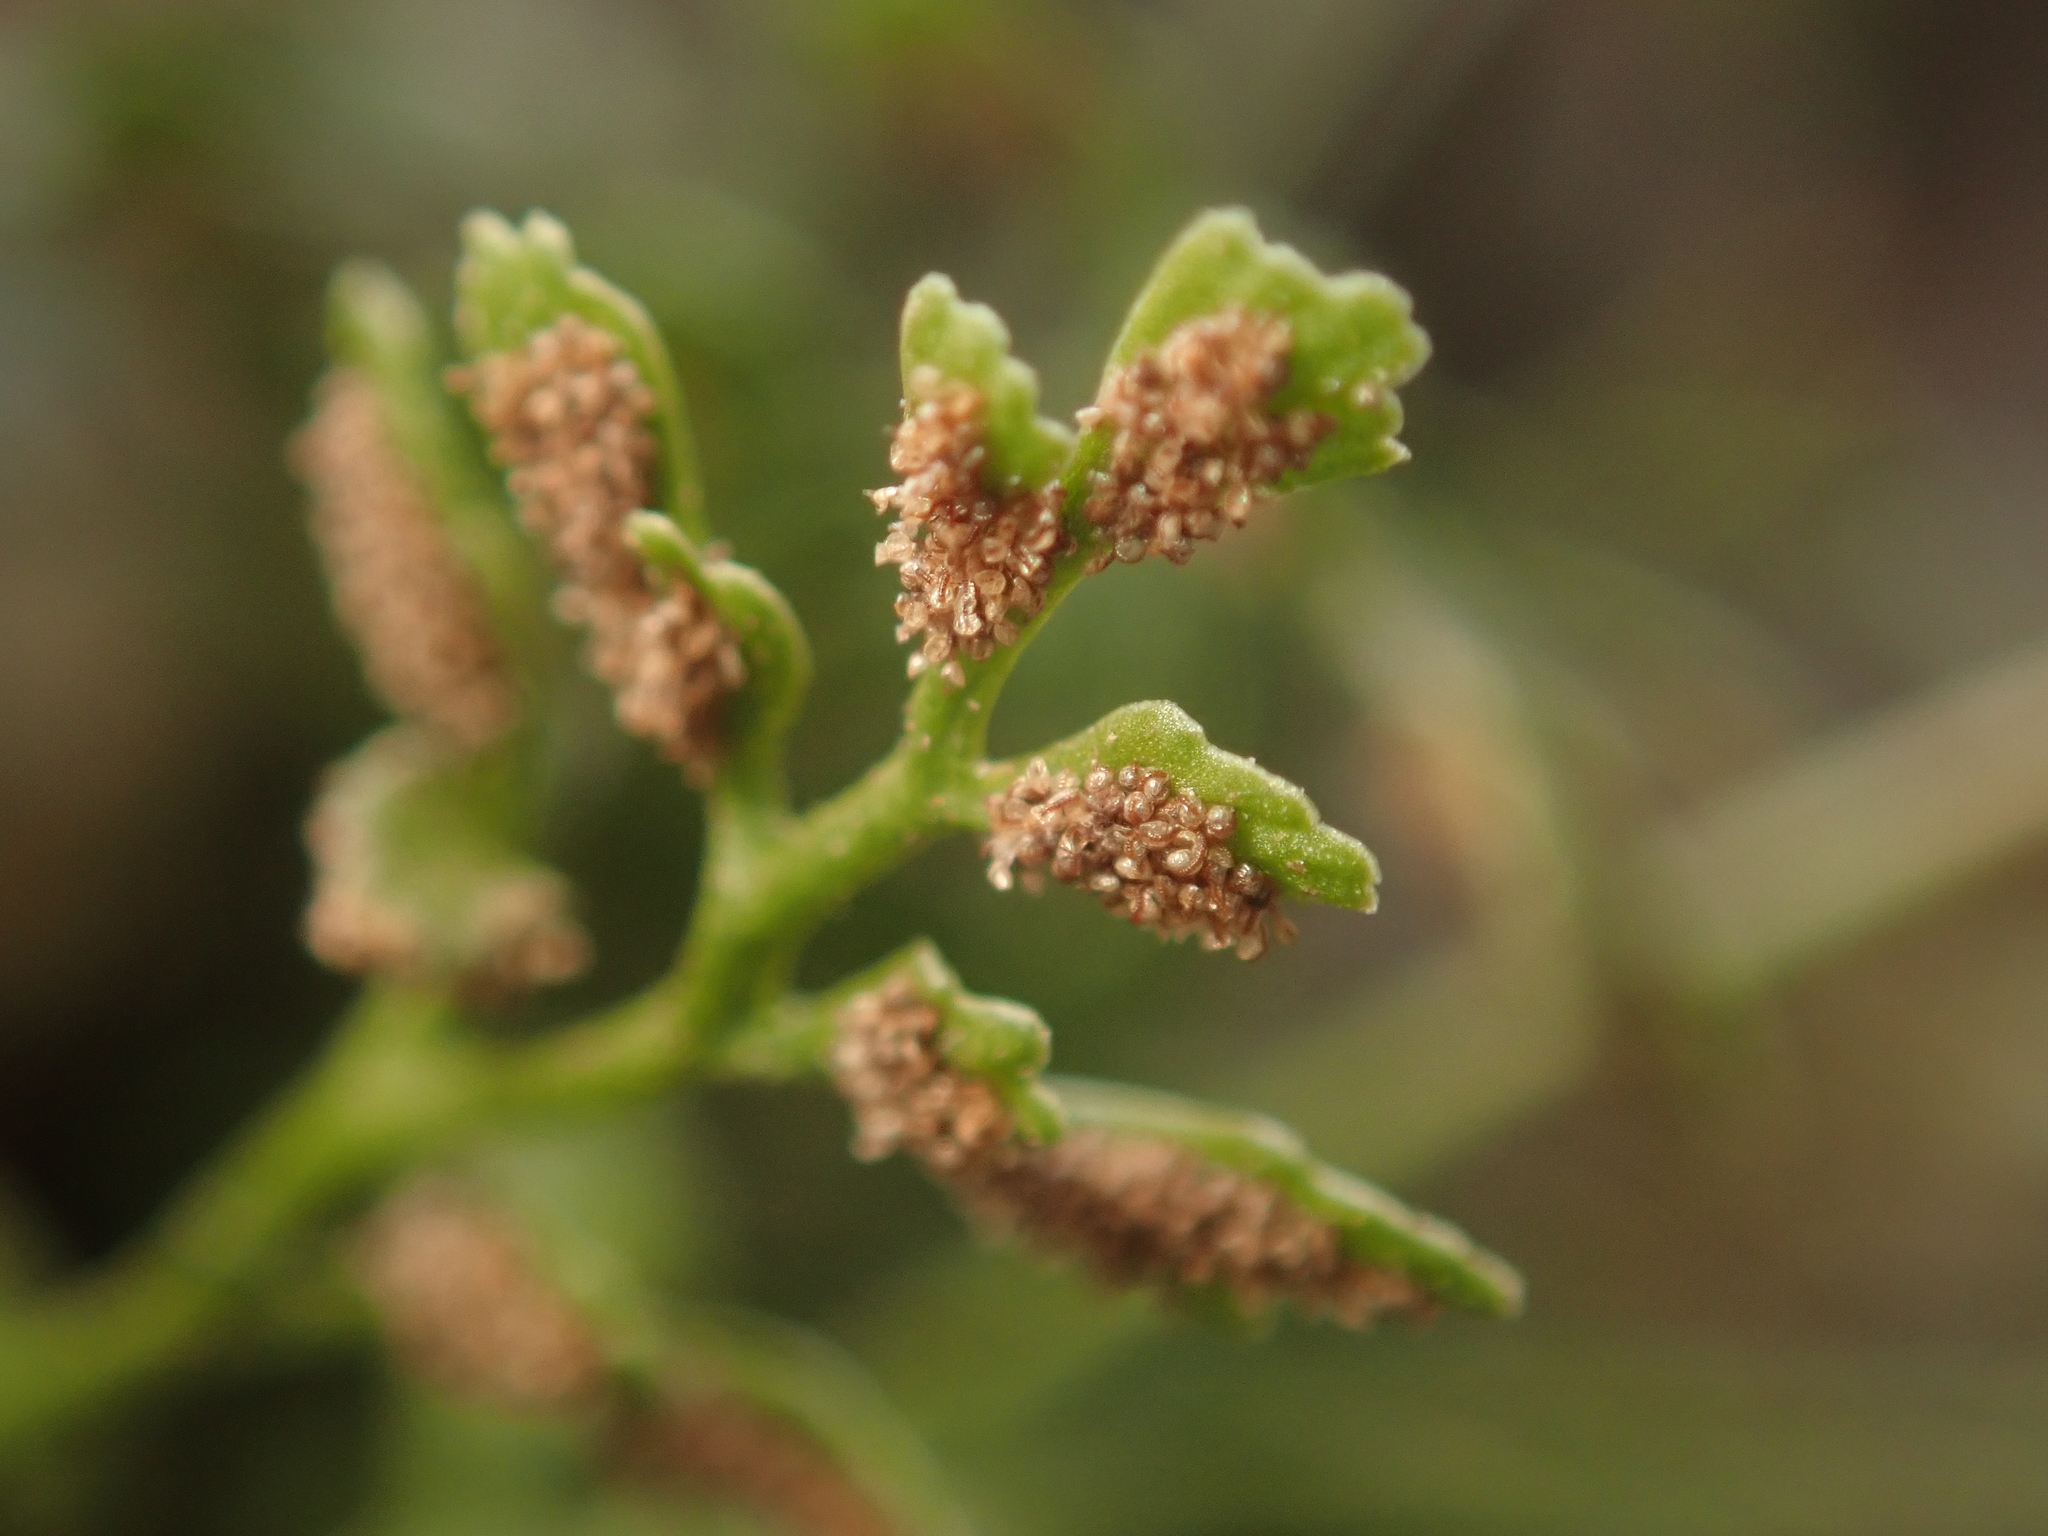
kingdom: Plantae
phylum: Tracheophyta
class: Polypodiopsida
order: Polypodiales
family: Aspleniaceae
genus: Asplenium
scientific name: Asplenium ruta-muraria
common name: Wall-rue
